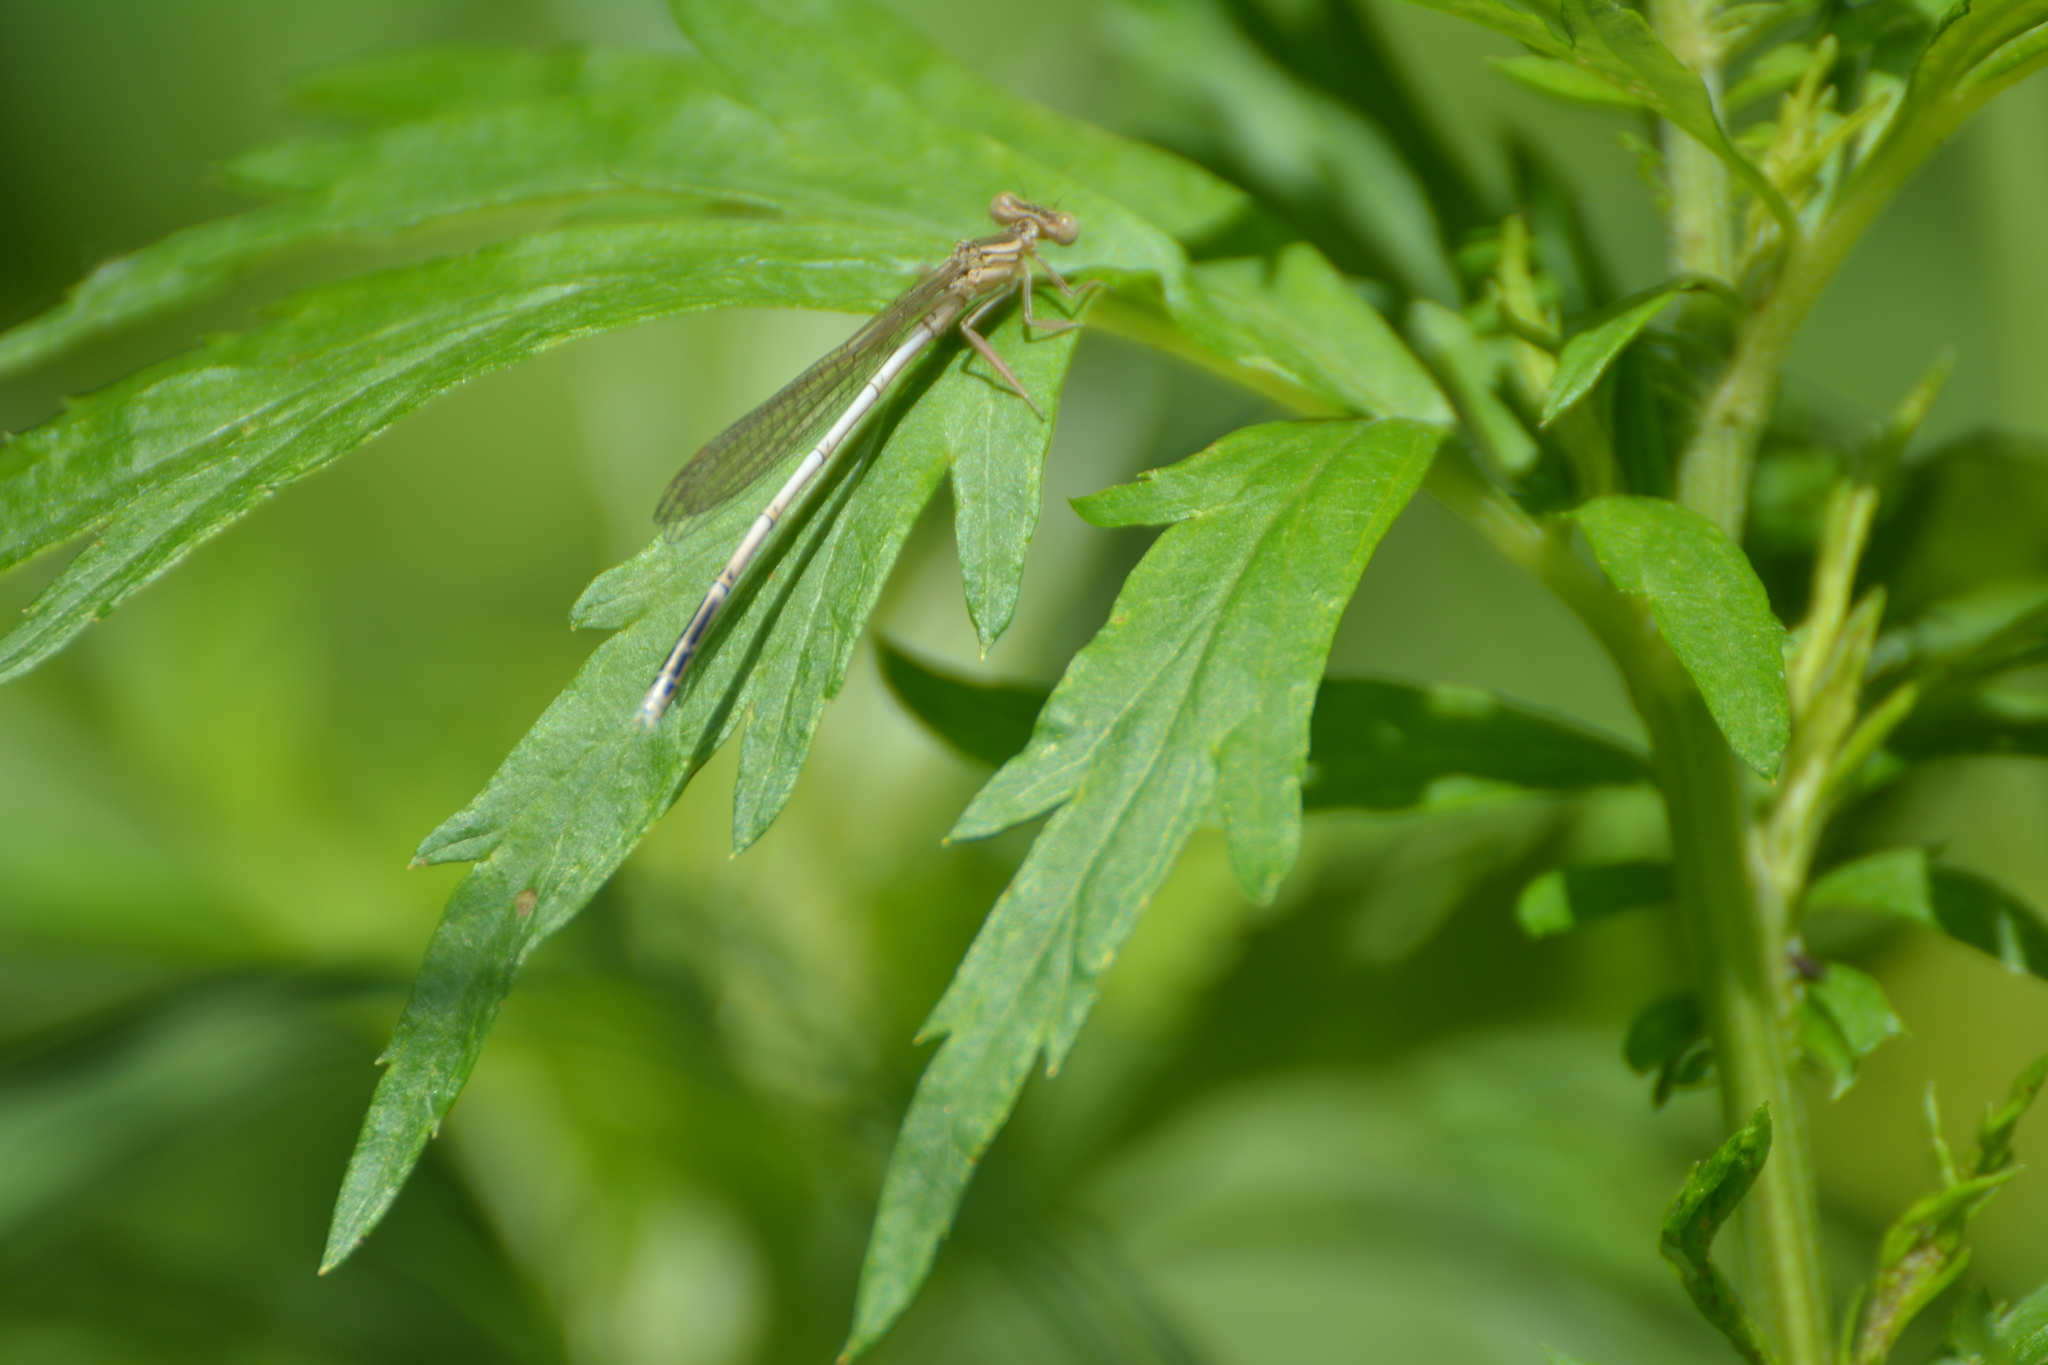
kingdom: Animalia
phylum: Arthropoda
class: Insecta
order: Odonata
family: Platycnemididae
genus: Platycnemis
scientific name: Platycnemis pennipes
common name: White-legged damselfly
